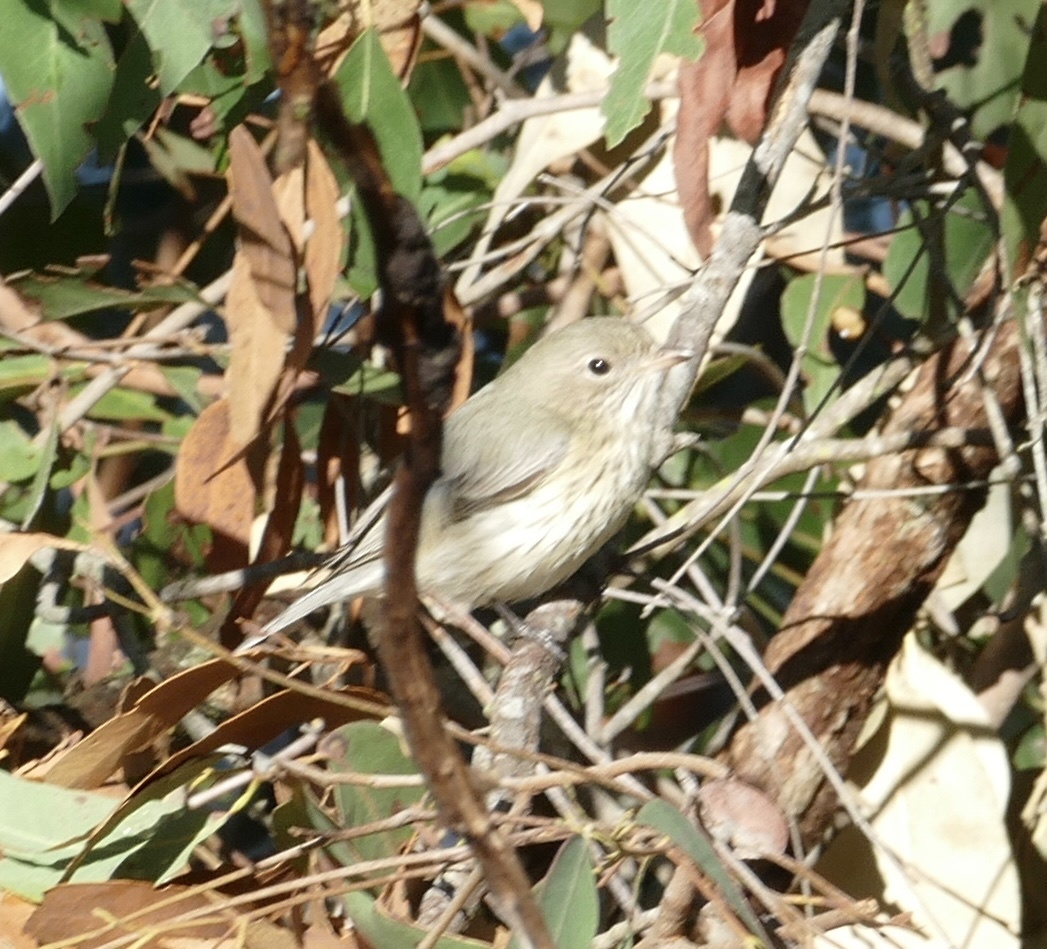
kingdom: Animalia
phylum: Chordata
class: Aves
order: Passeriformes
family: Pachycephalidae
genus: Pachycephala
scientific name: Pachycephala rufiventris
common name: Rufous whistler
